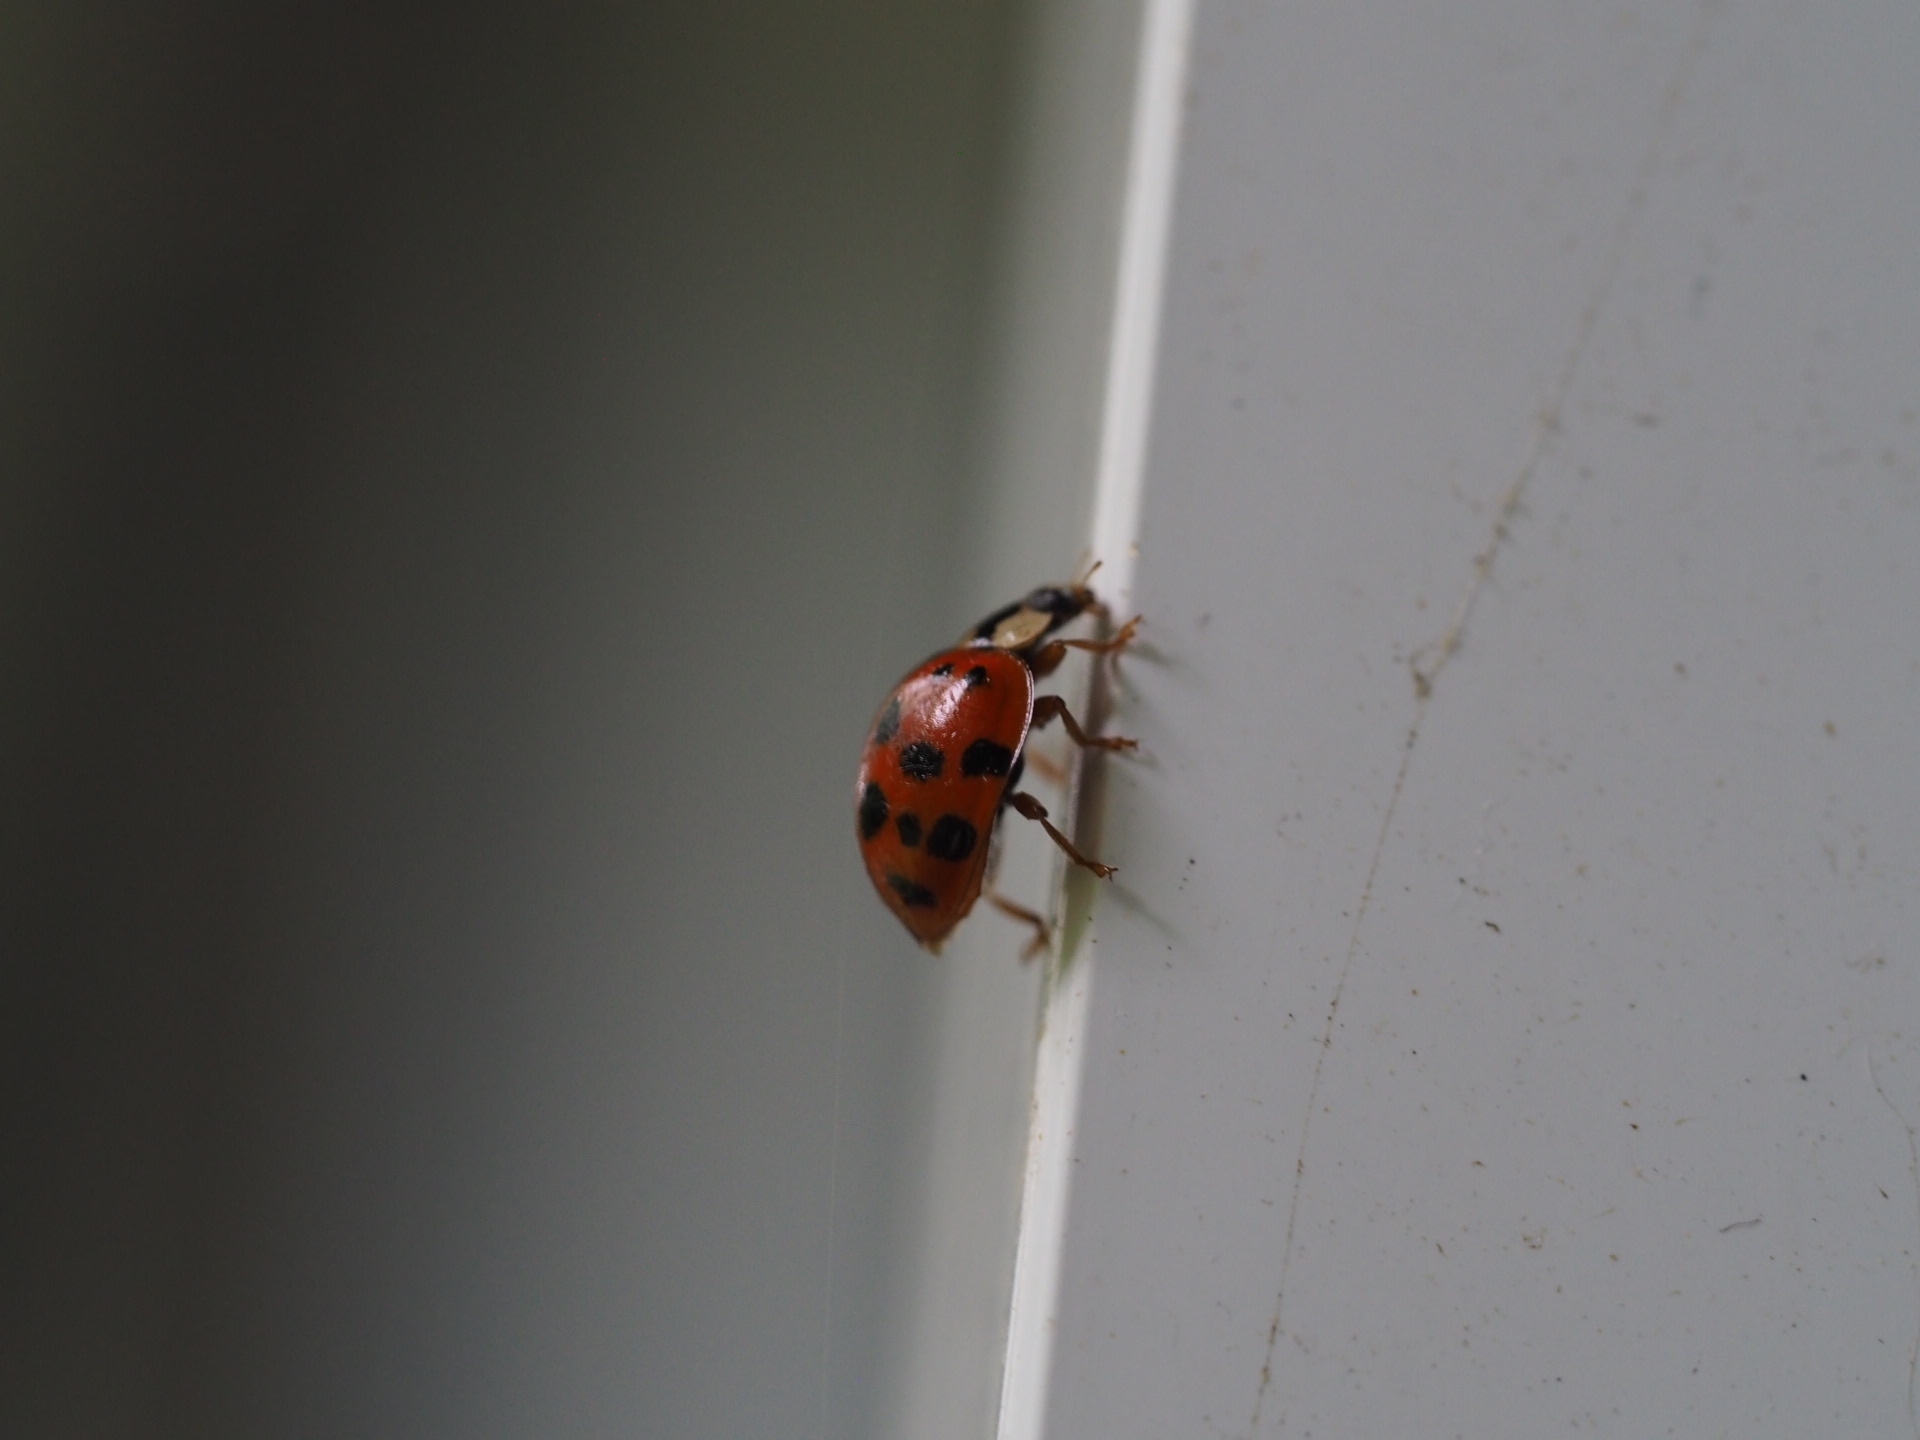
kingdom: Animalia
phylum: Arthropoda
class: Insecta
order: Coleoptera
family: Coccinellidae
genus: Harmonia
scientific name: Harmonia axyridis
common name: Harlequin ladybird
